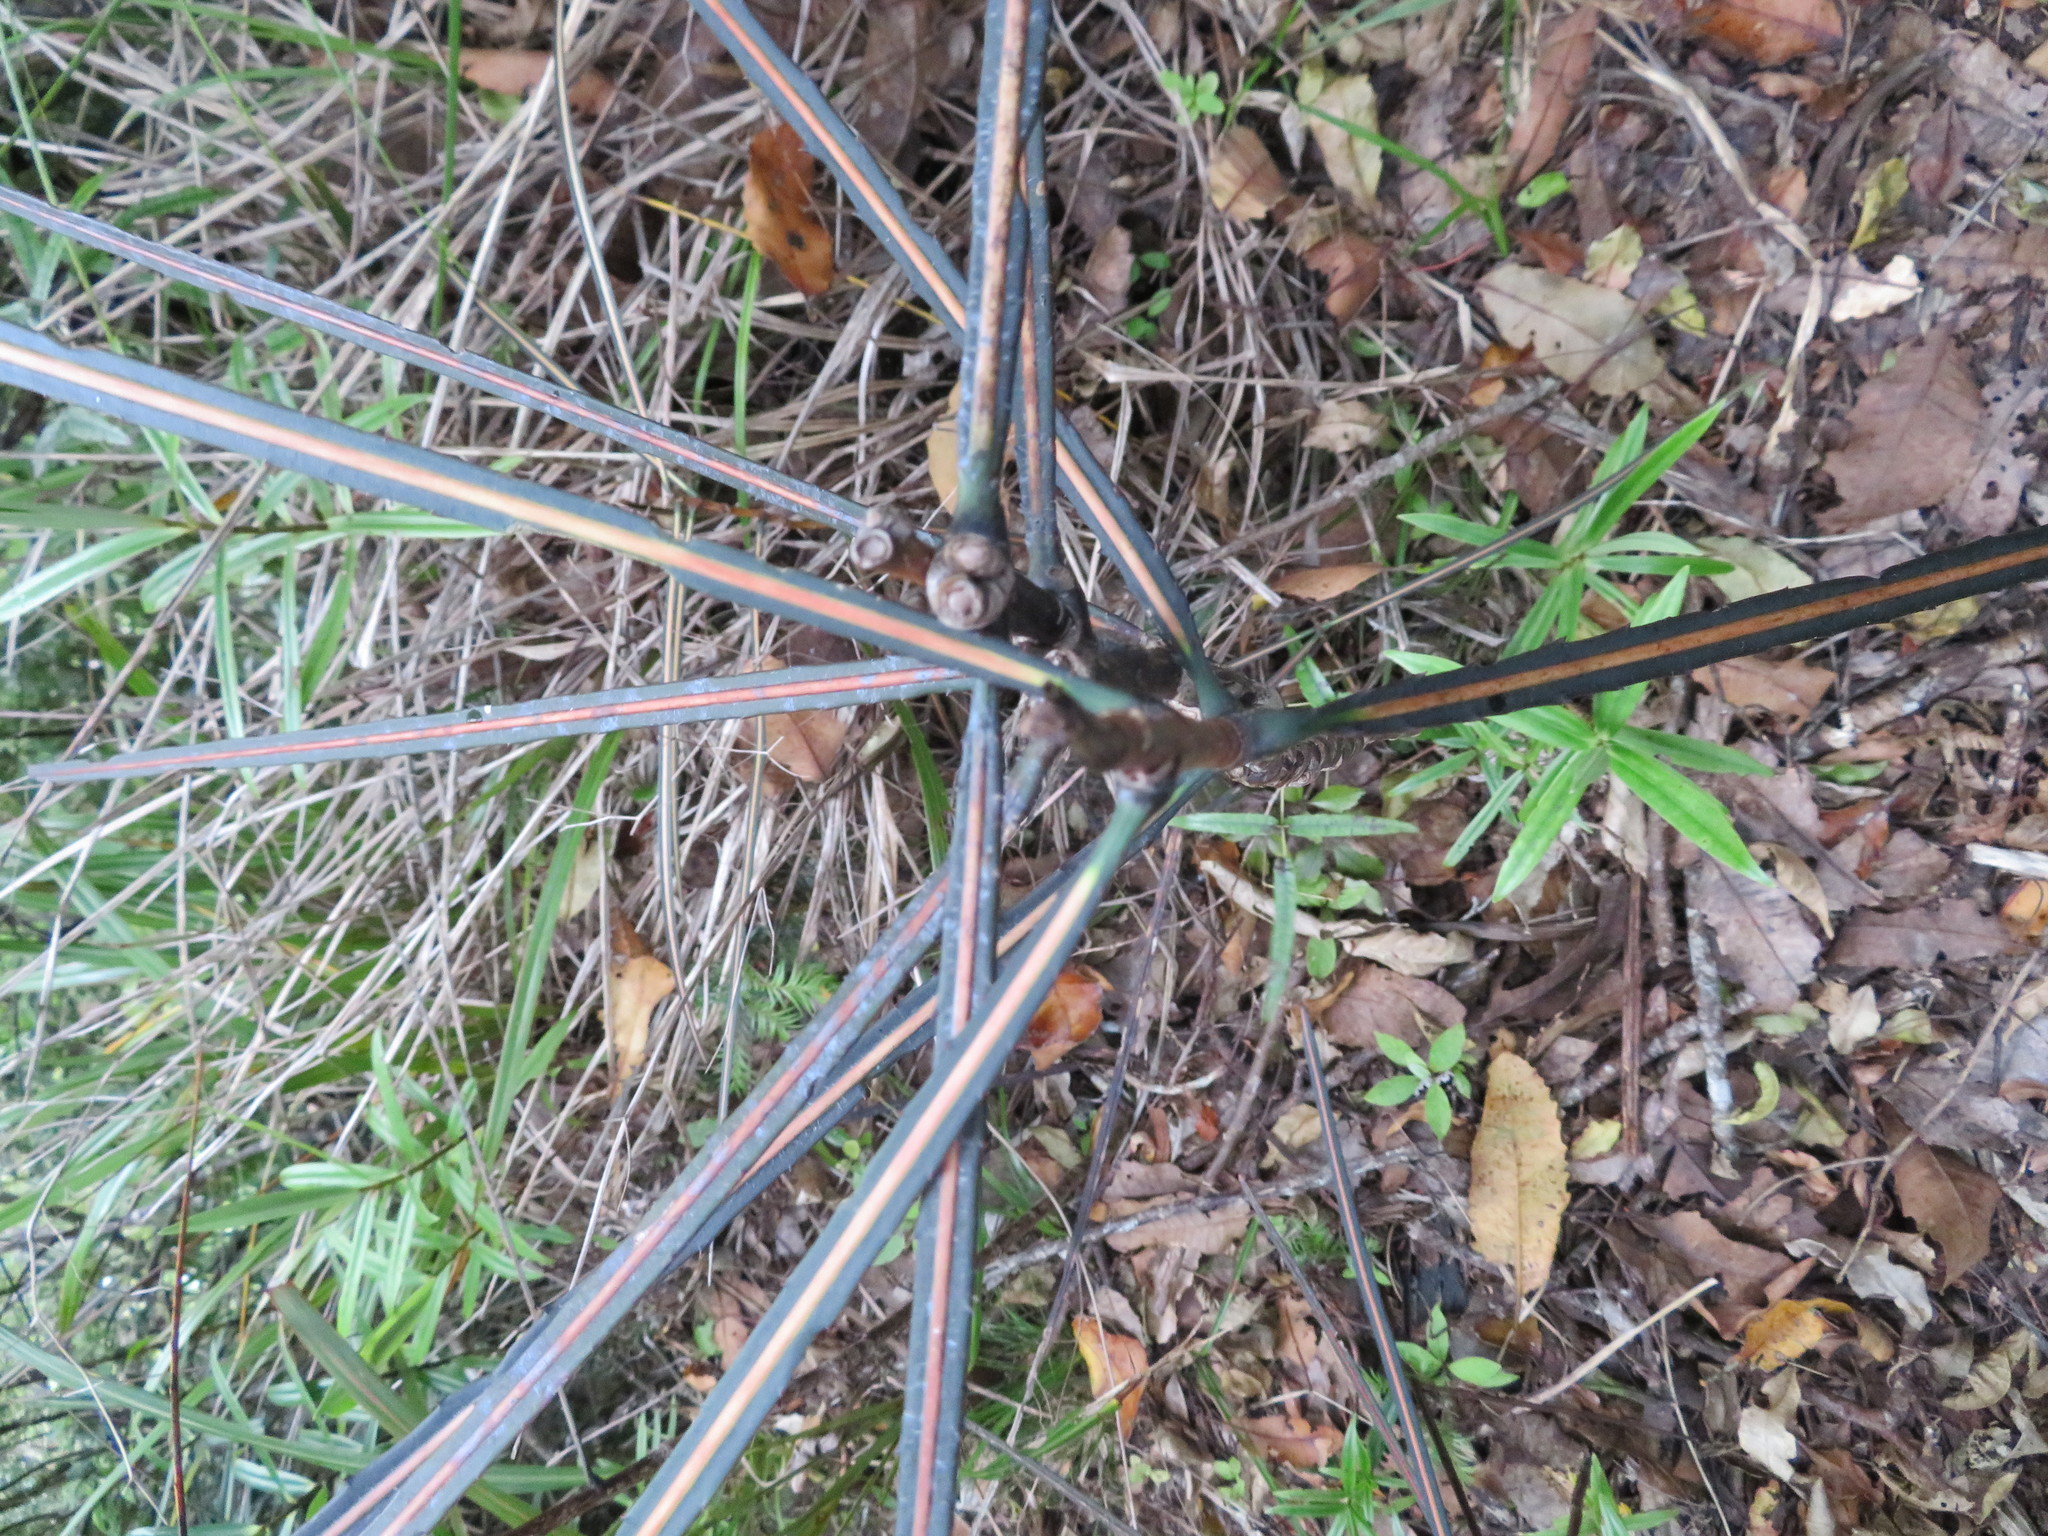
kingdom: Plantae
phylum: Tracheophyta
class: Magnoliopsida
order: Apiales
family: Araliaceae
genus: Pseudopanax
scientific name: Pseudopanax crassifolius
